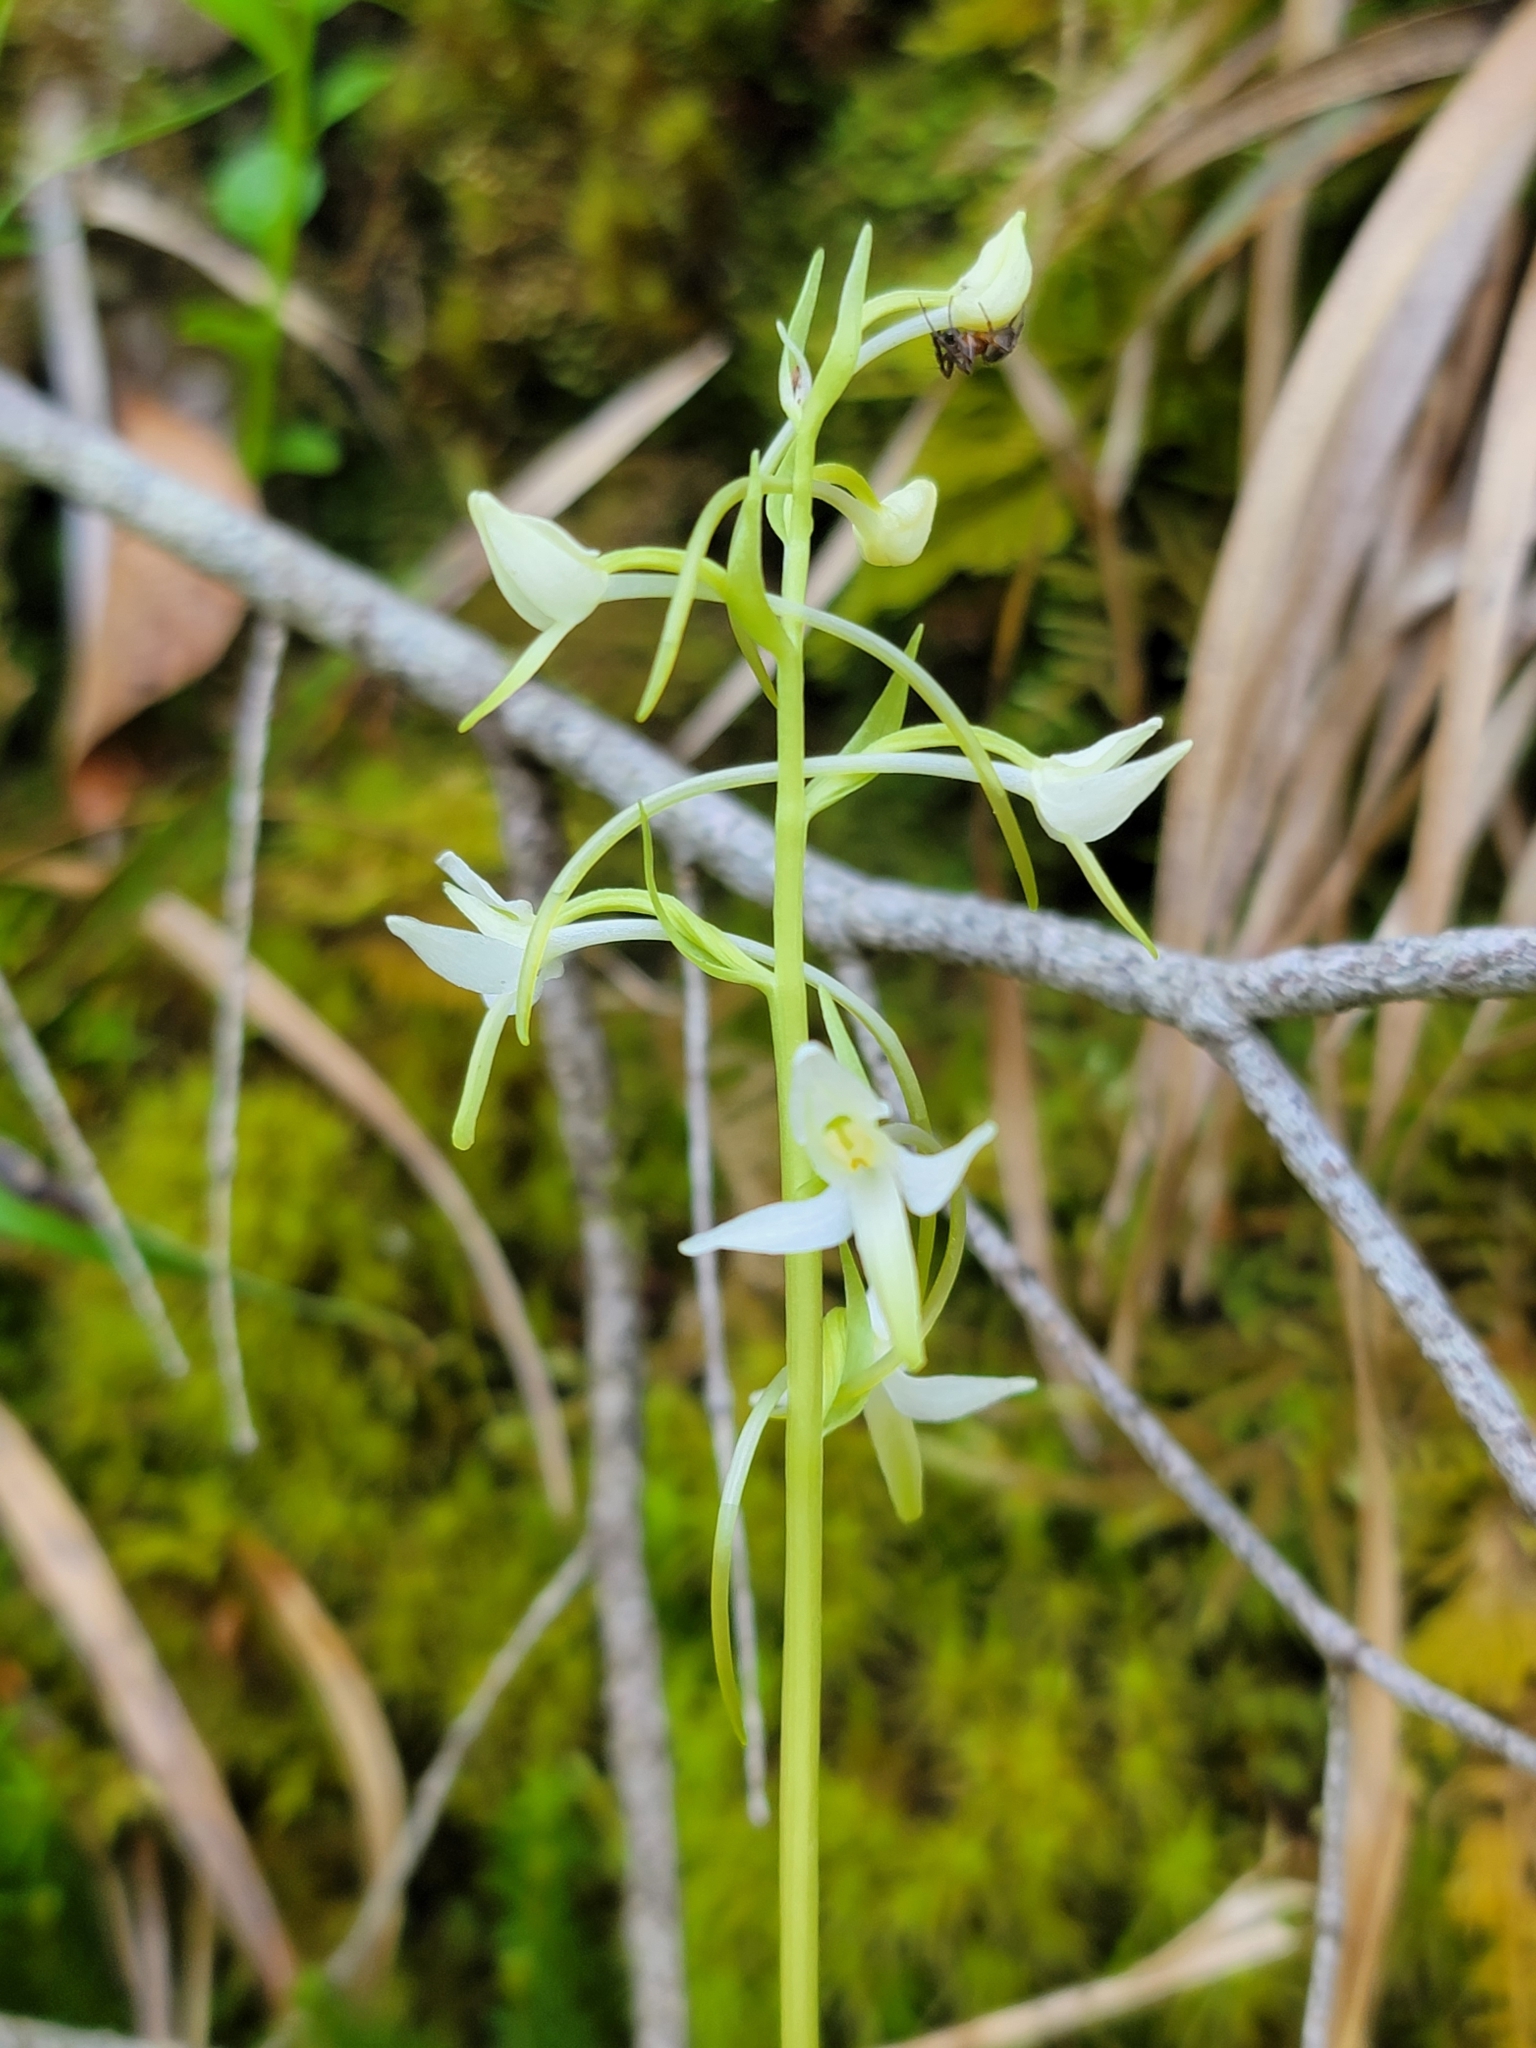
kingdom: Plantae
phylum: Tracheophyta
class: Liliopsida
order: Asparagales
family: Orchidaceae
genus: Platanthera
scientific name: Platanthera bifolia
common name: Lesser butterfly-orchid
